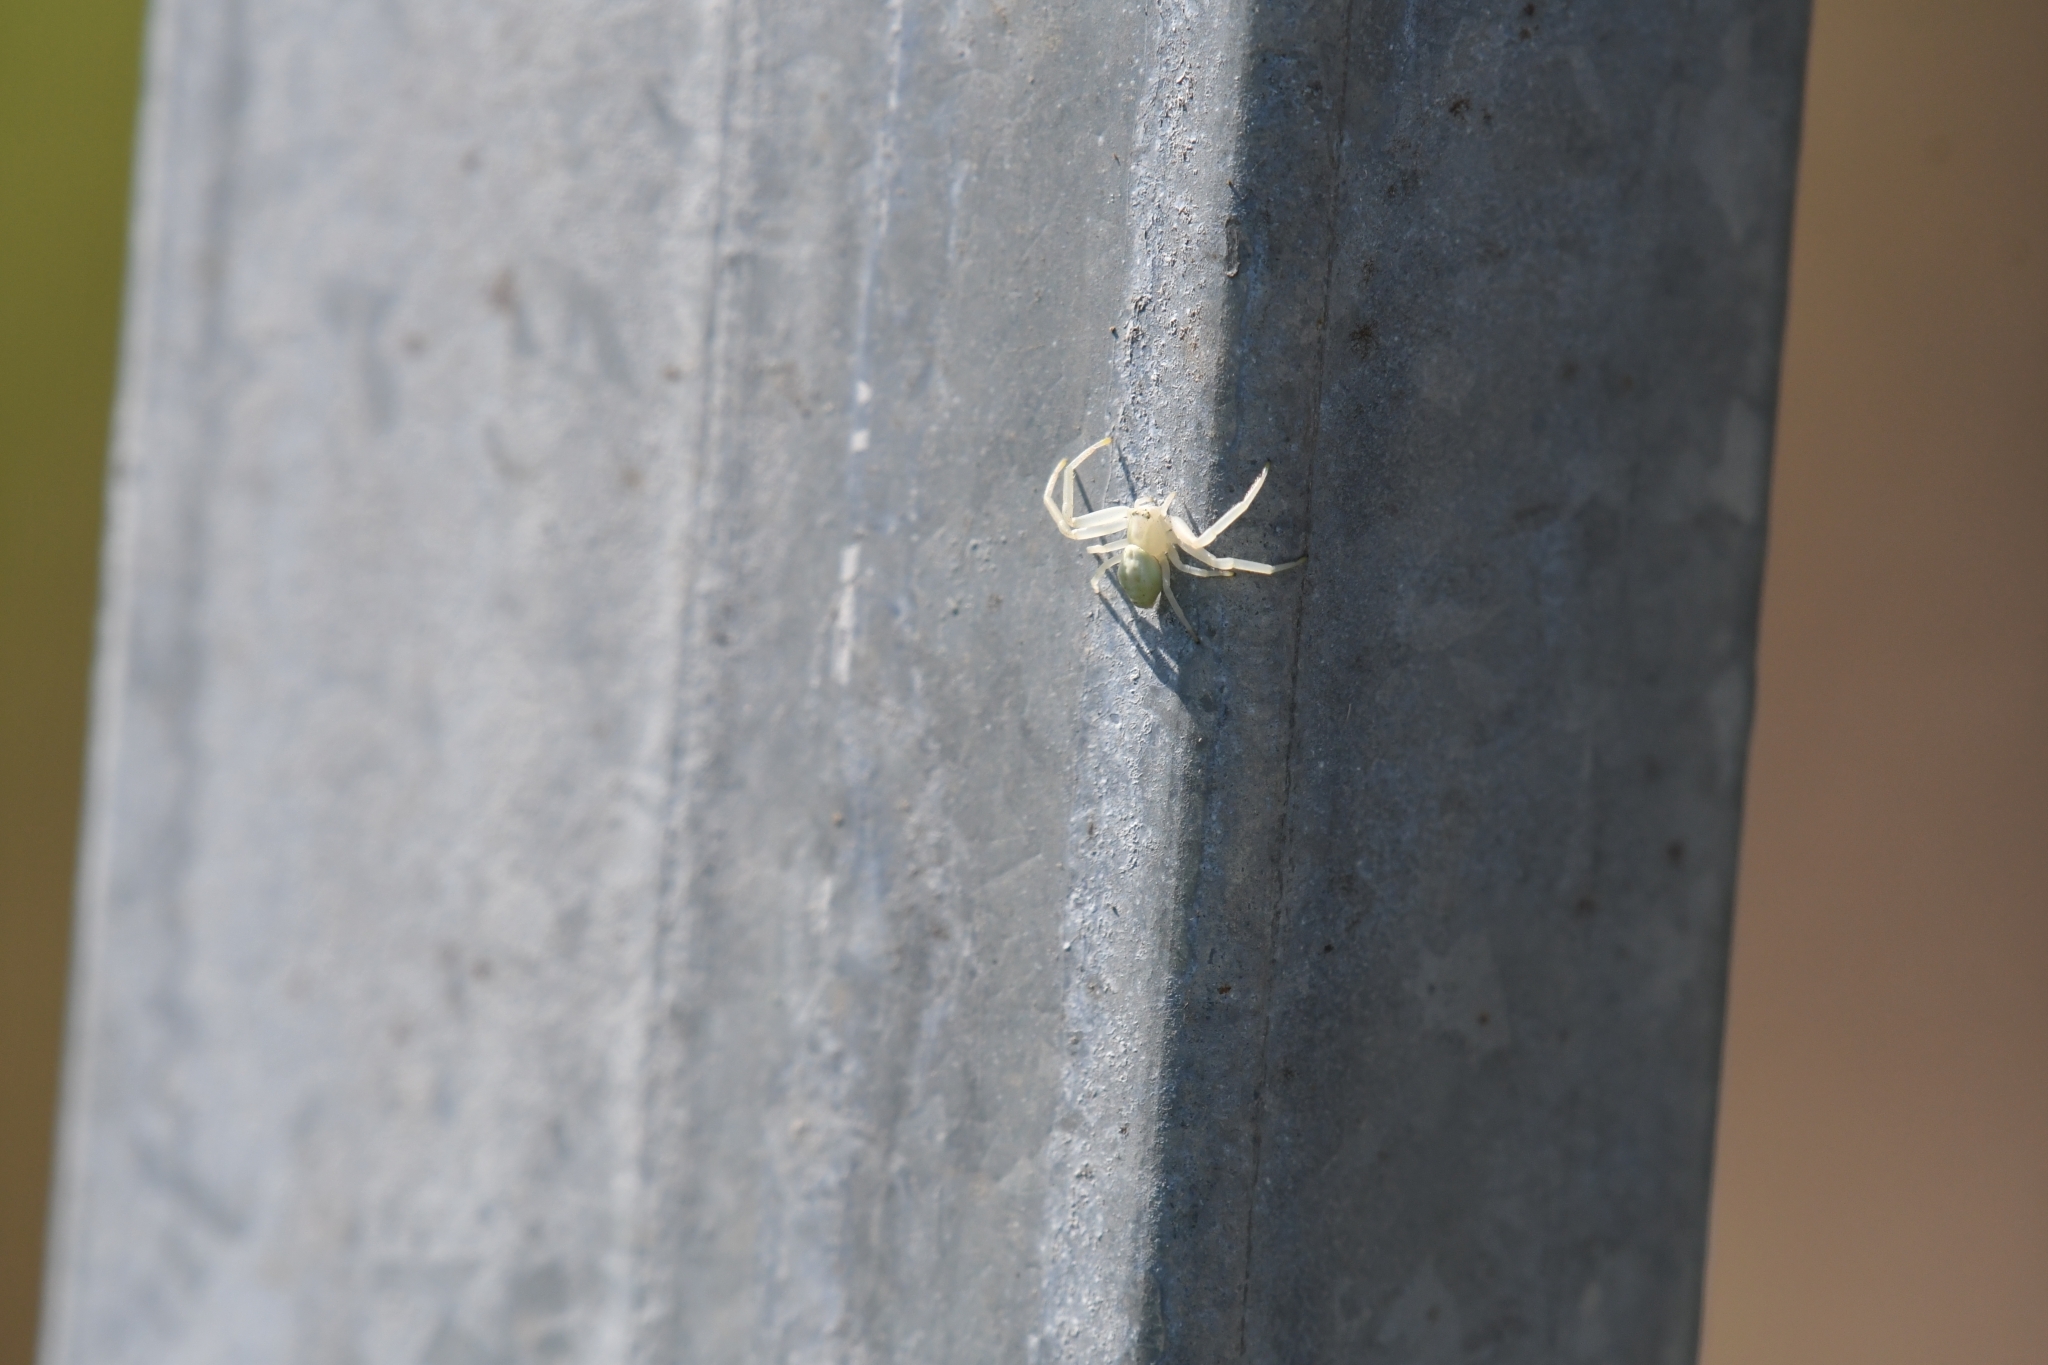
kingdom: Animalia
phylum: Arthropoda
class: Arachnida
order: Araneae
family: Thomisidae
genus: Misumena
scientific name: Misumena vatia
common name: Goldenrod crab spider
